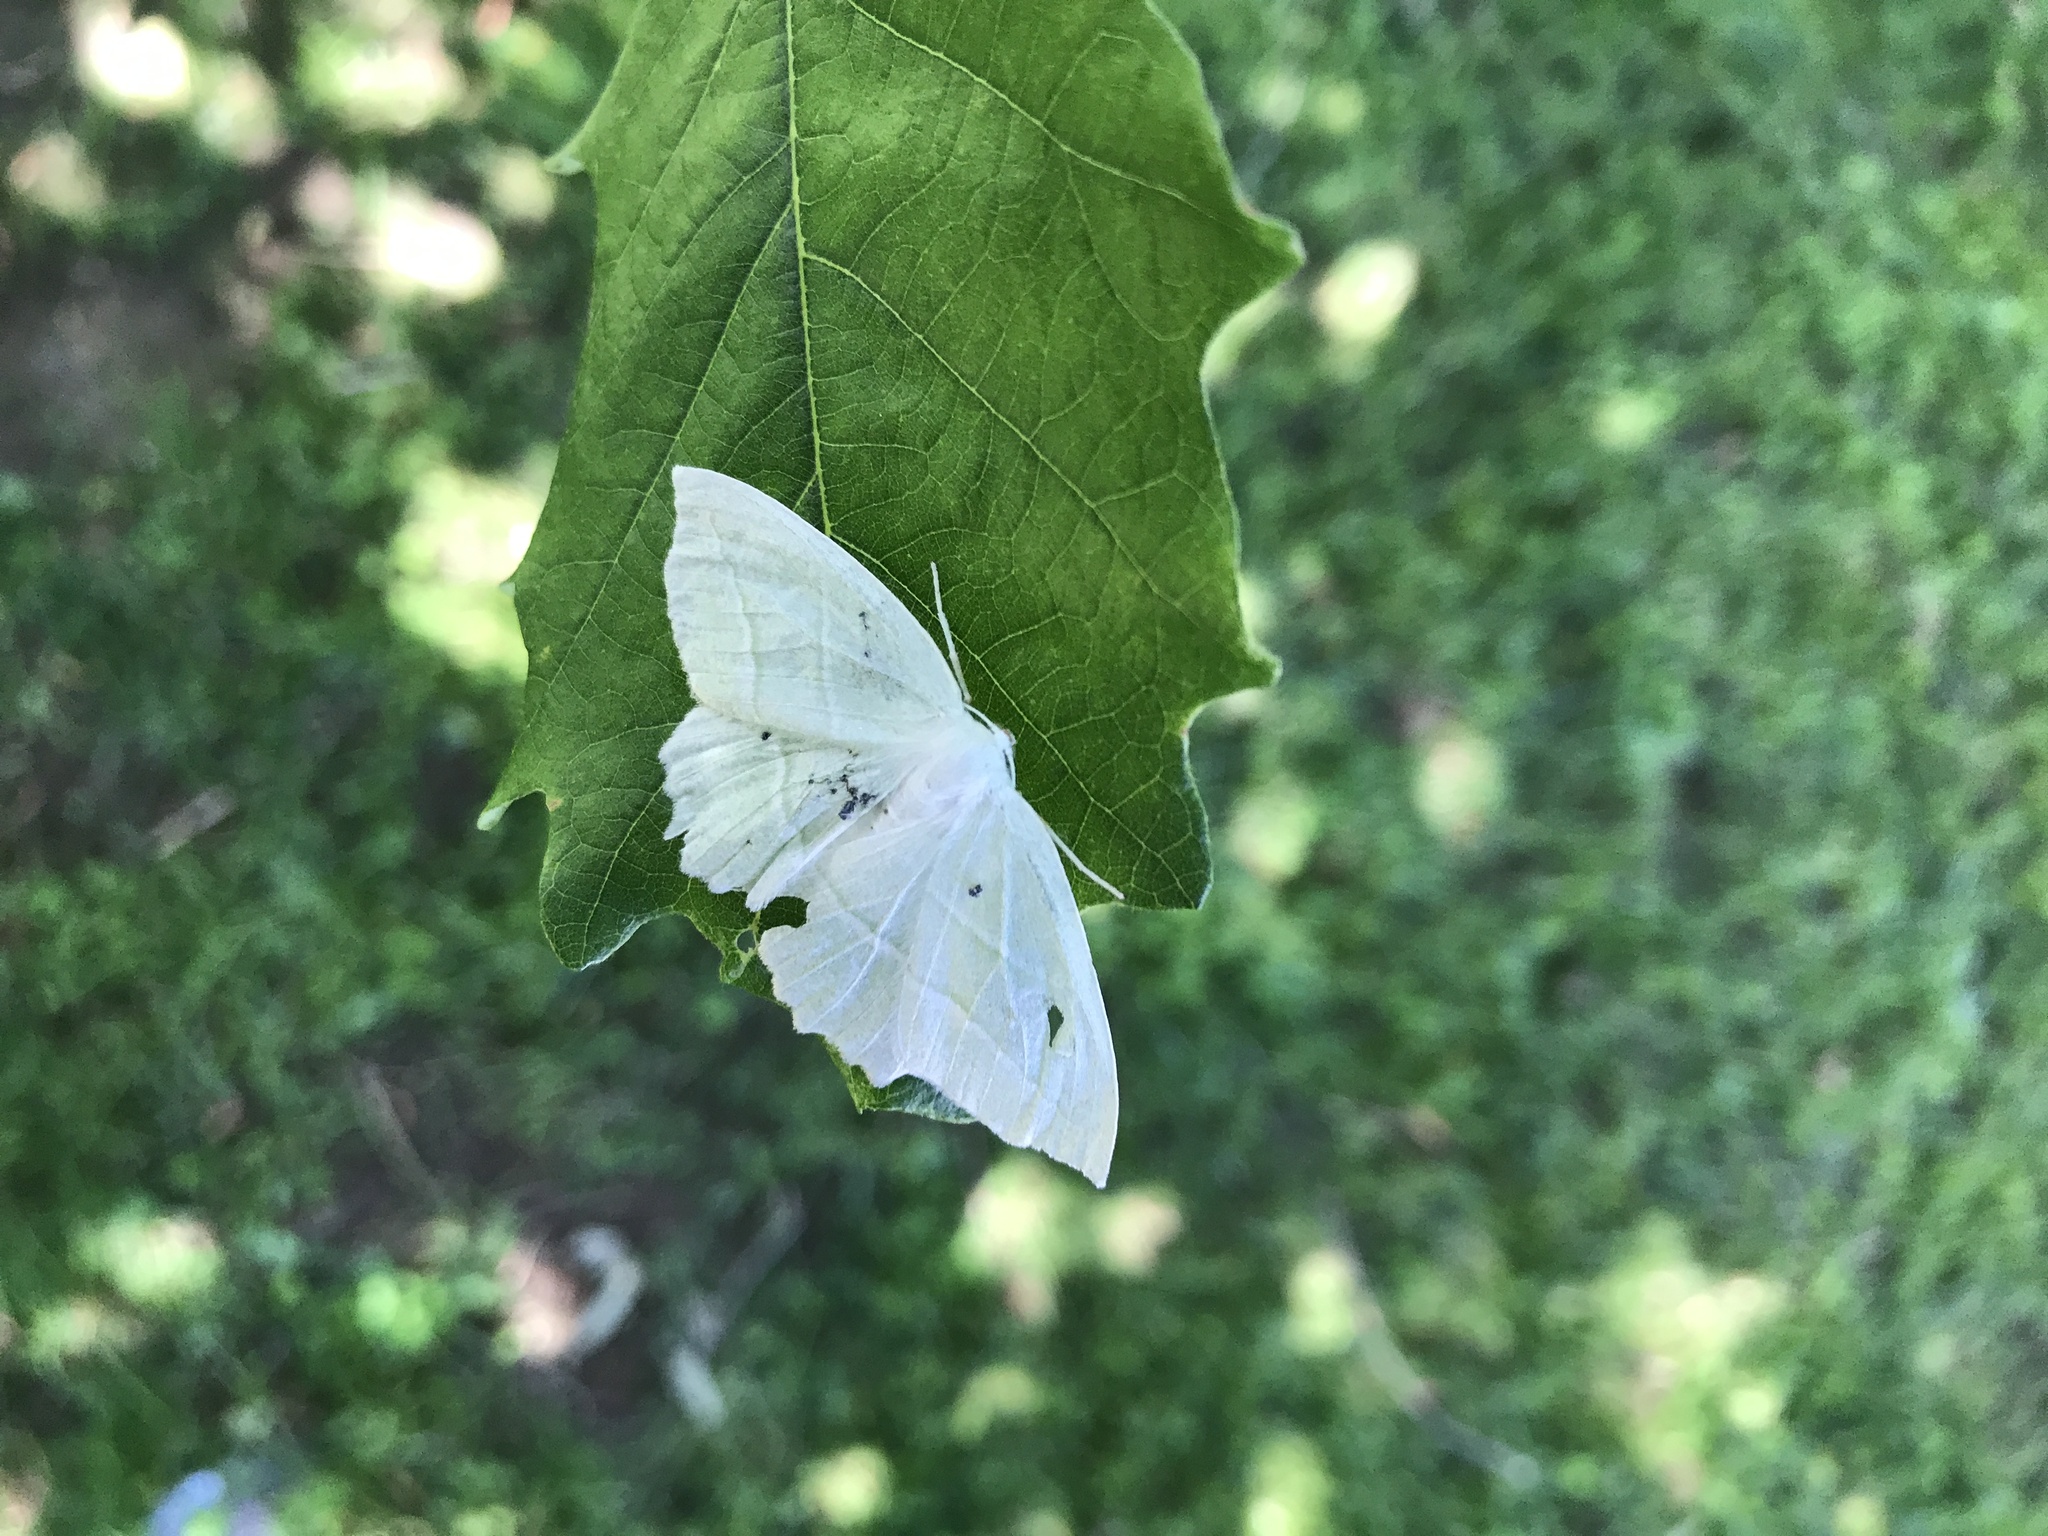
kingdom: Animalia
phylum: Arthropoda
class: Insecta
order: Lepidoptera
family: Geometridae
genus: Campaea
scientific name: Campaea perlata
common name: Fringed looper
